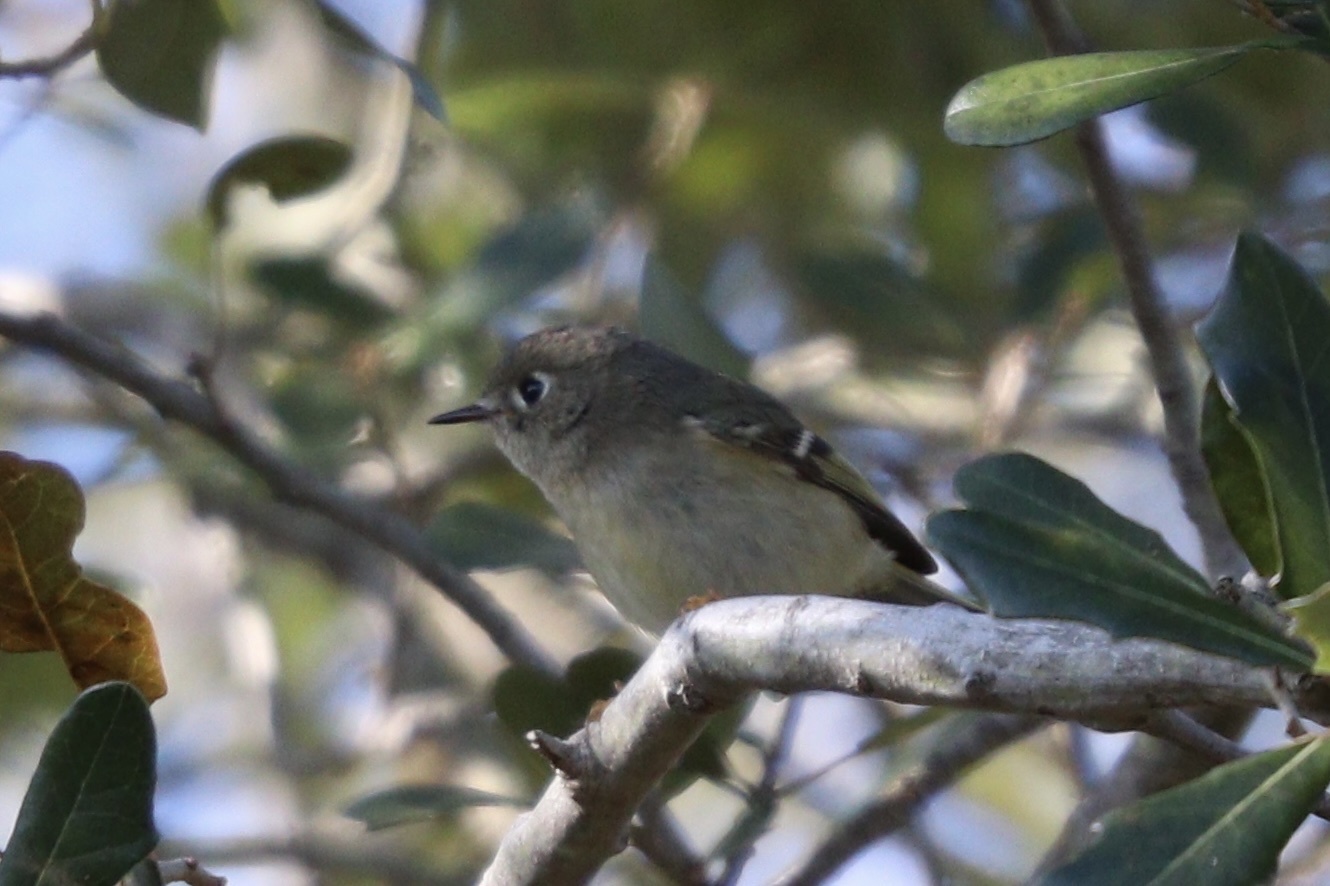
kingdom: Animalia
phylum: Chordata
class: Aves
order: Passeriformes
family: Regulidae
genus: Regulus
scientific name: Regulus calendula
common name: Ruby-crowned kinglet
